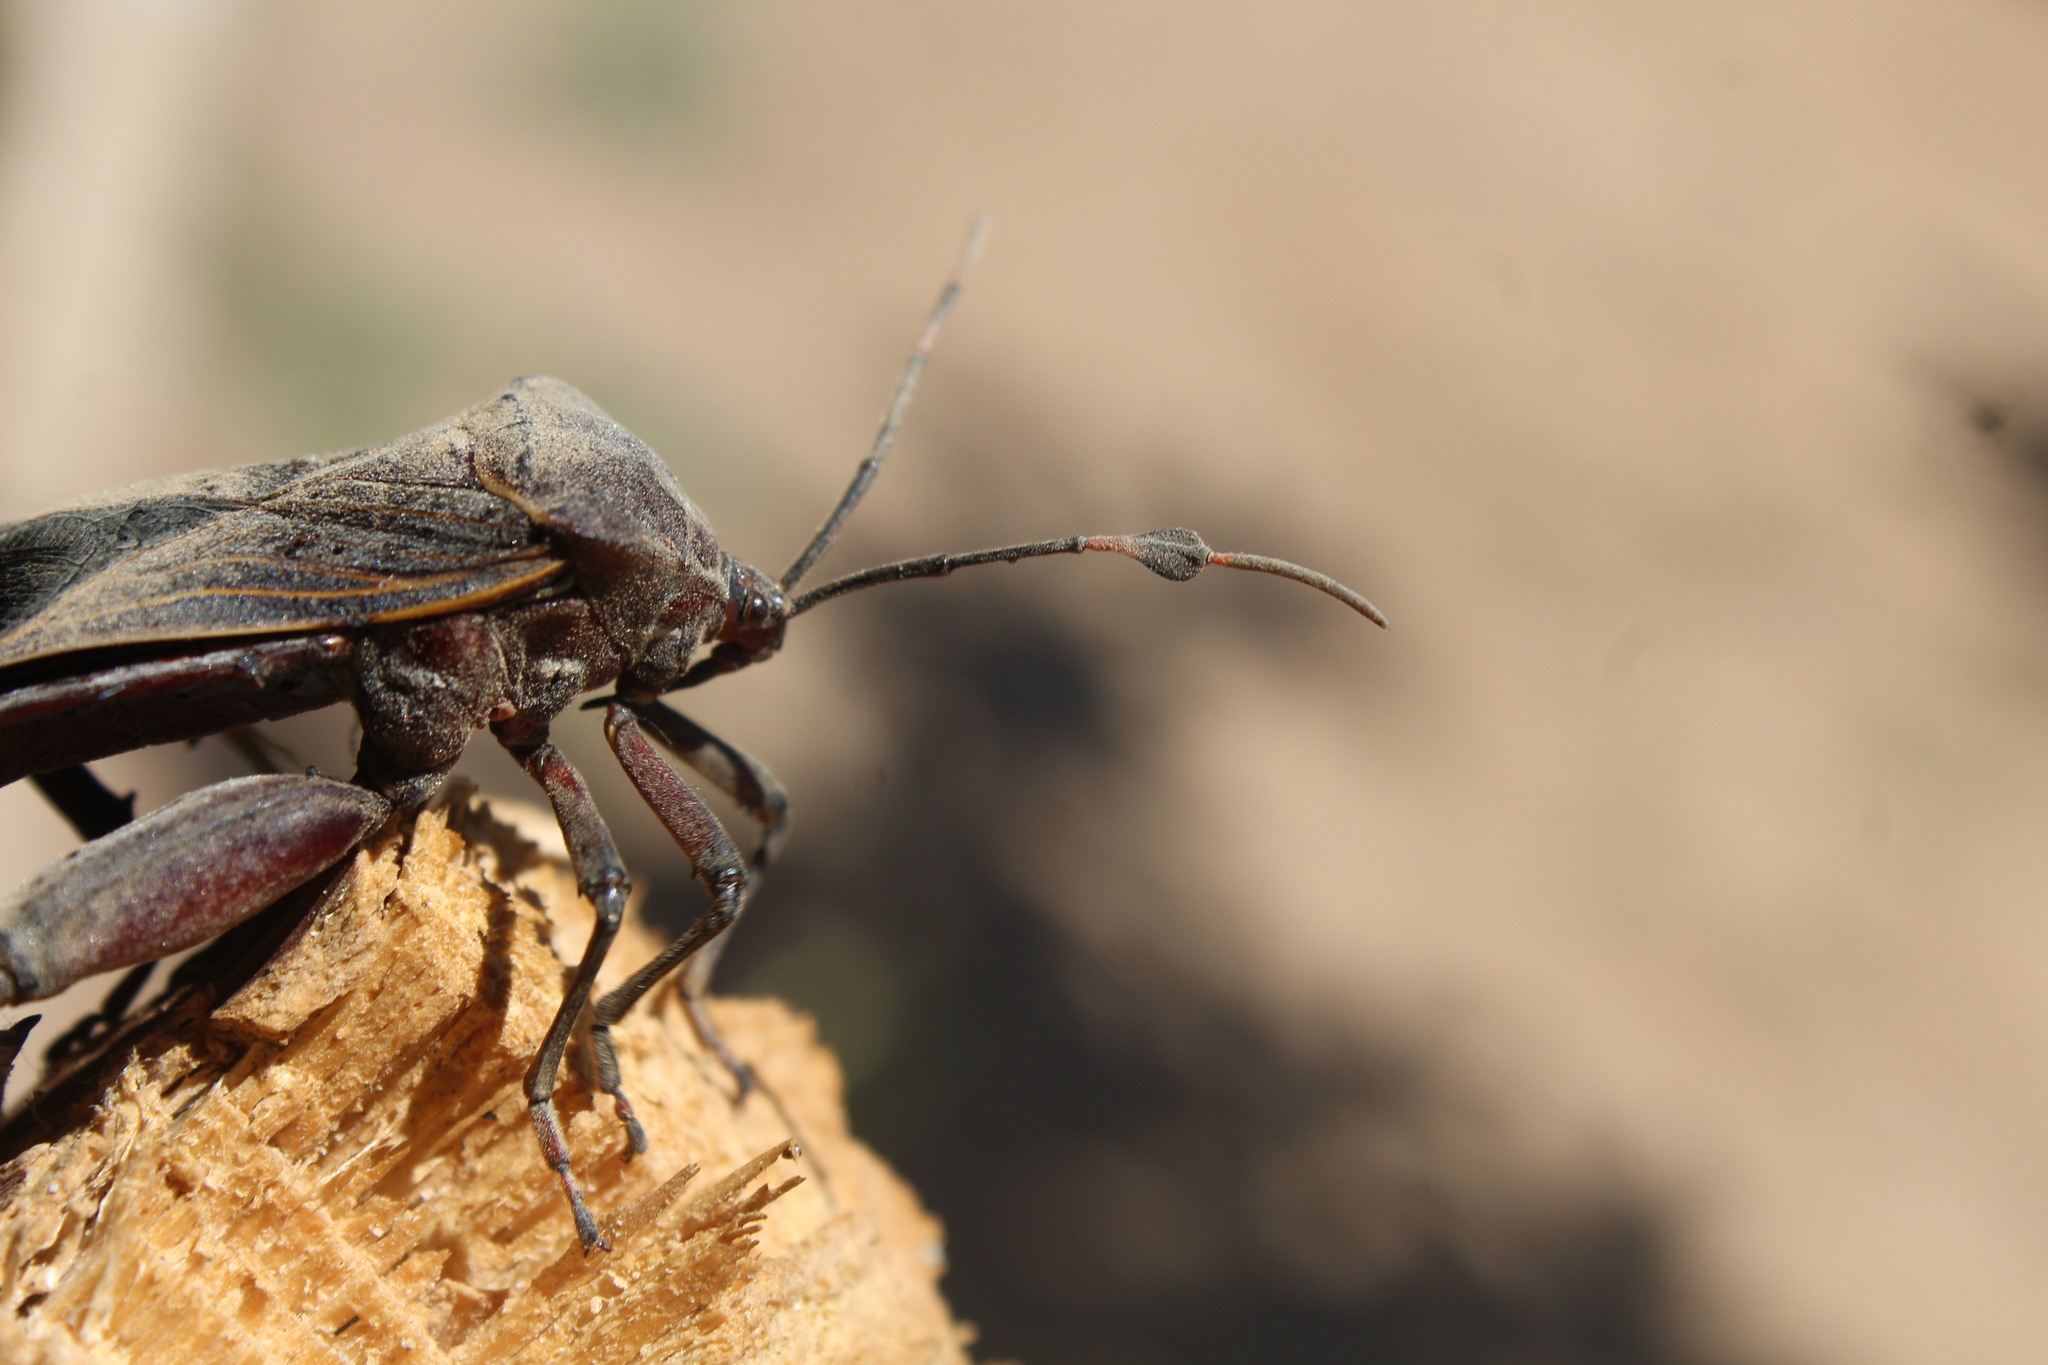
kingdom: Animalia
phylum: Arthropoda
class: Insecta
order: Hemiptera
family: Coreidae
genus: Pachylis
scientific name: Pachylis nervosus
